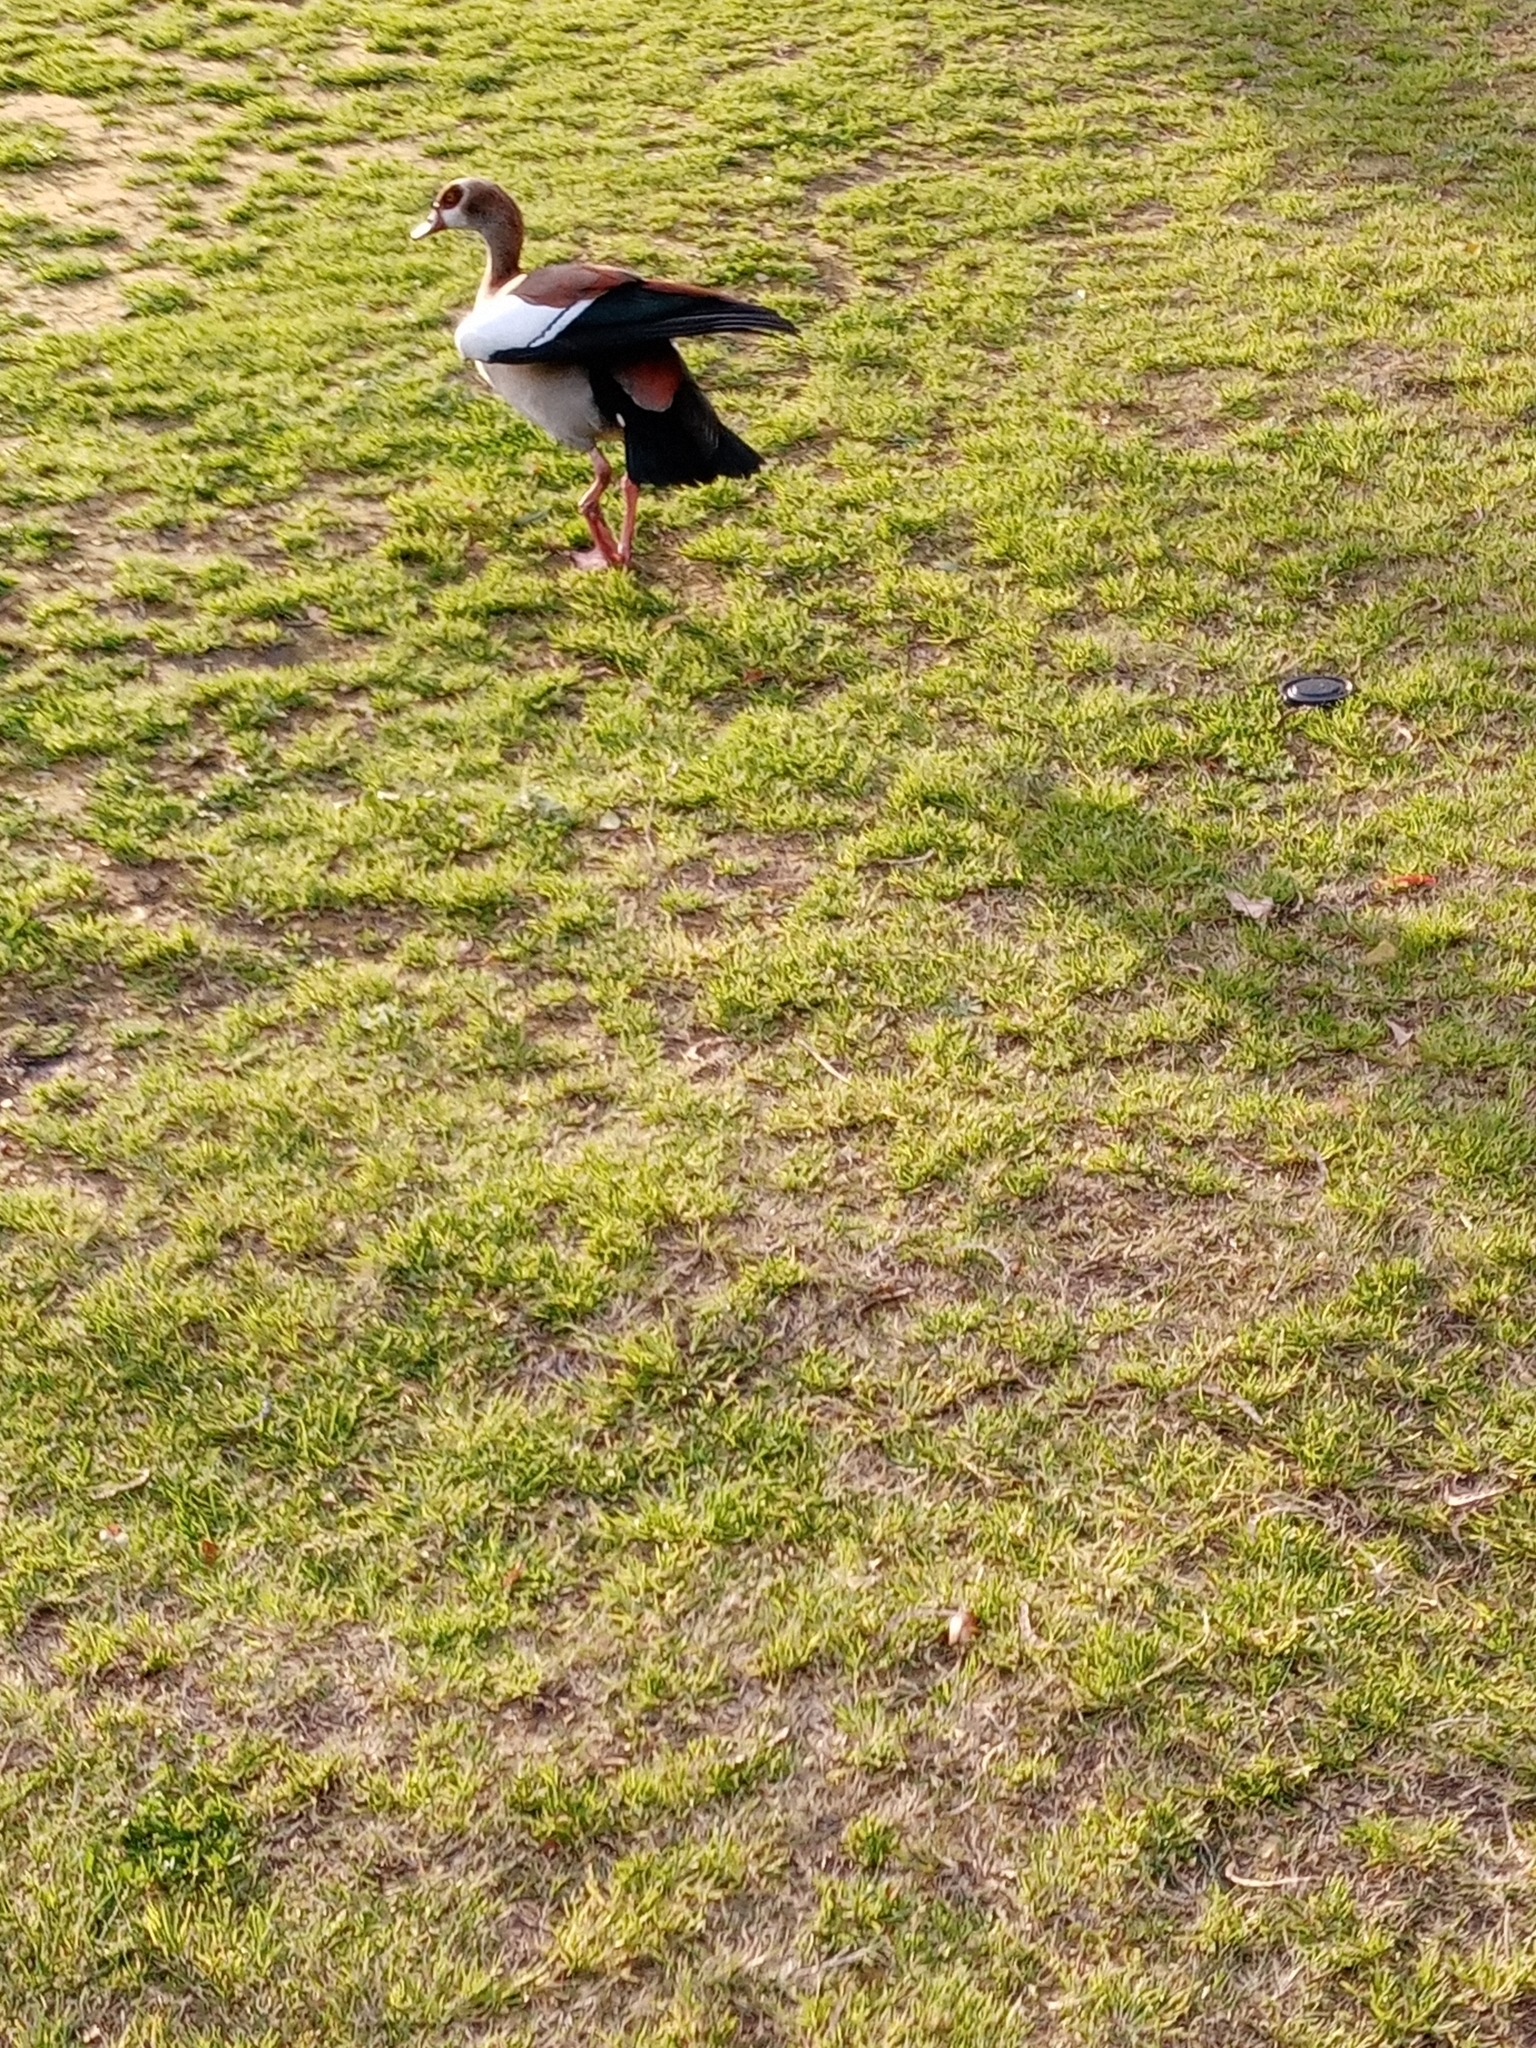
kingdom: Animalia
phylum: Chordata
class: Aves
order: Anseriformes
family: Anatidae
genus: Alopochen
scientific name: Alopochen aegyptiaca
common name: Egyptian goose
